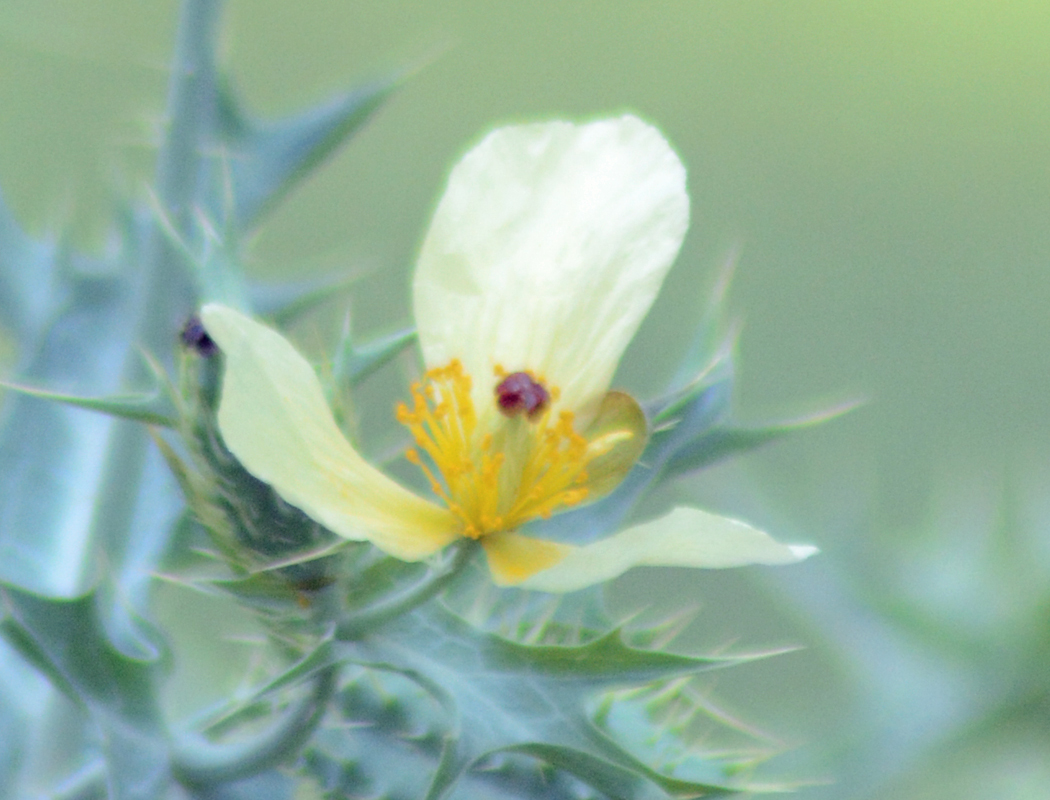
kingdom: Plantae
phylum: Tracheophyta
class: Magnoliopsida
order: Ranunculales
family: Papaveraceae
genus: Argemone
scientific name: Argemone ochroleuca
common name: White-flower mexican-poppy
